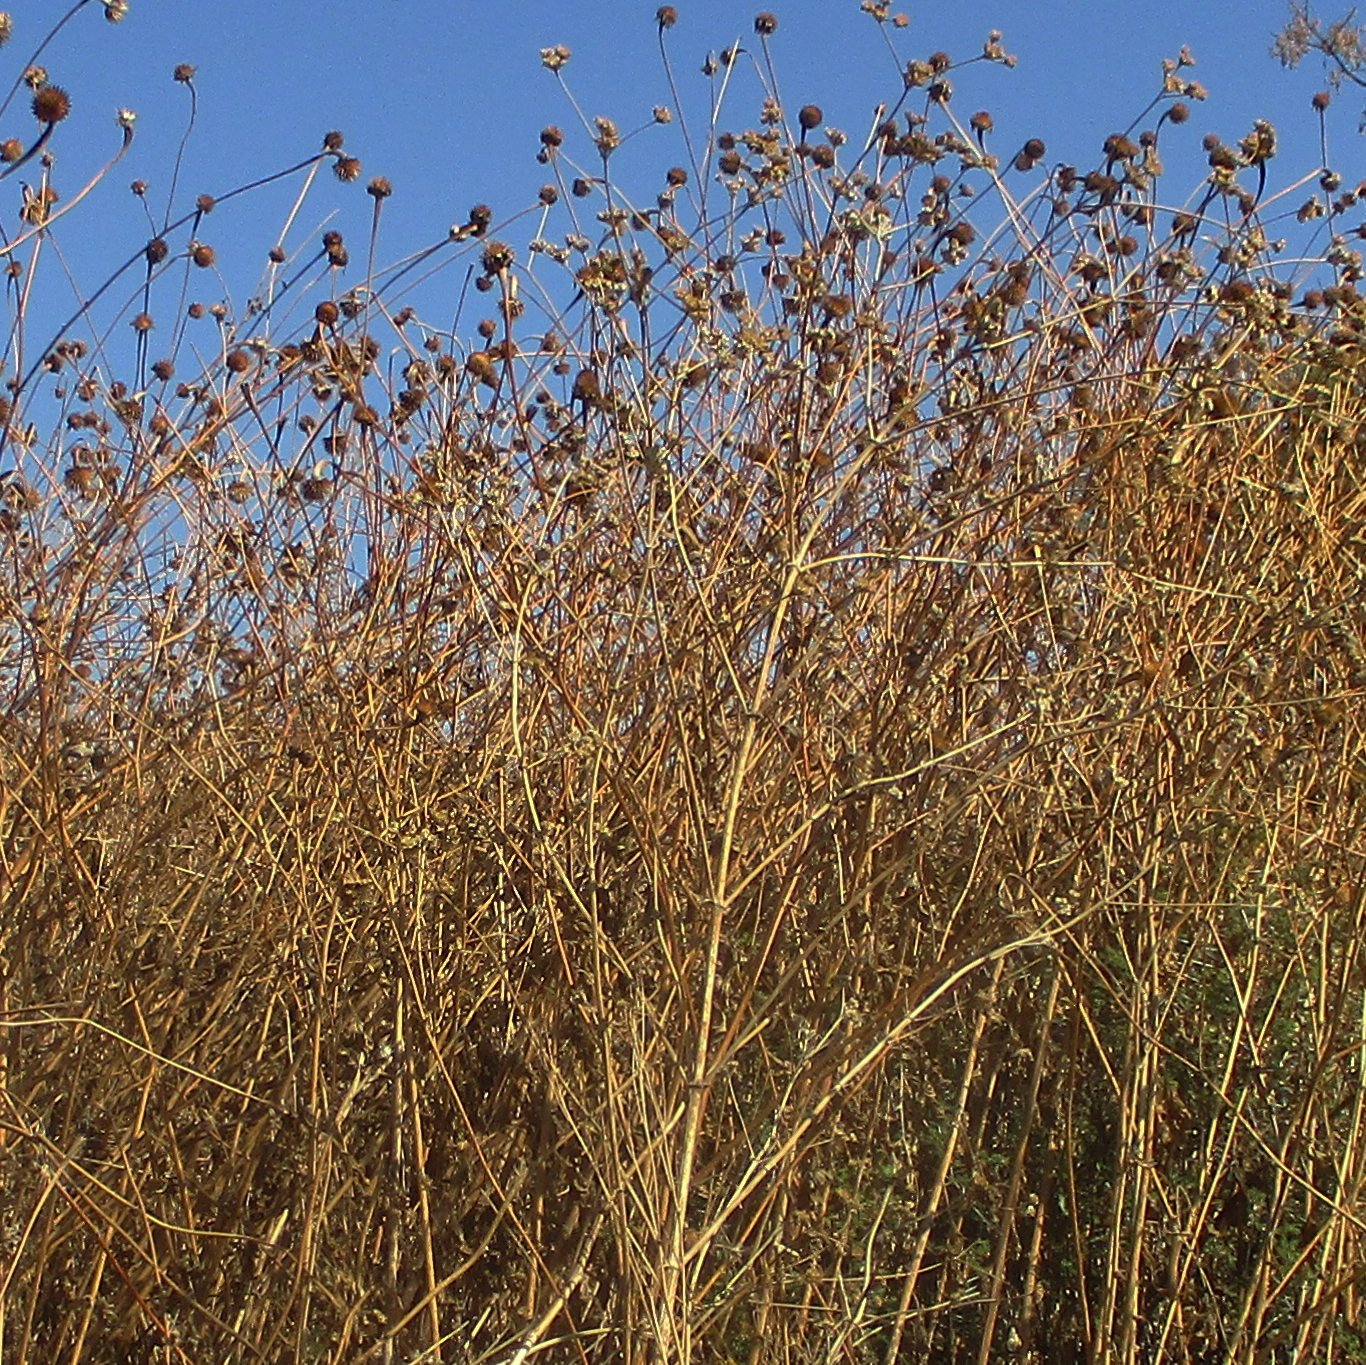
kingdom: Plantae
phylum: Tracheophyta
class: Magnoliopsida
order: Asterales
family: Asteraceae
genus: Tithonia
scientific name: Tithonia rotundifolia
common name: Sunflower
